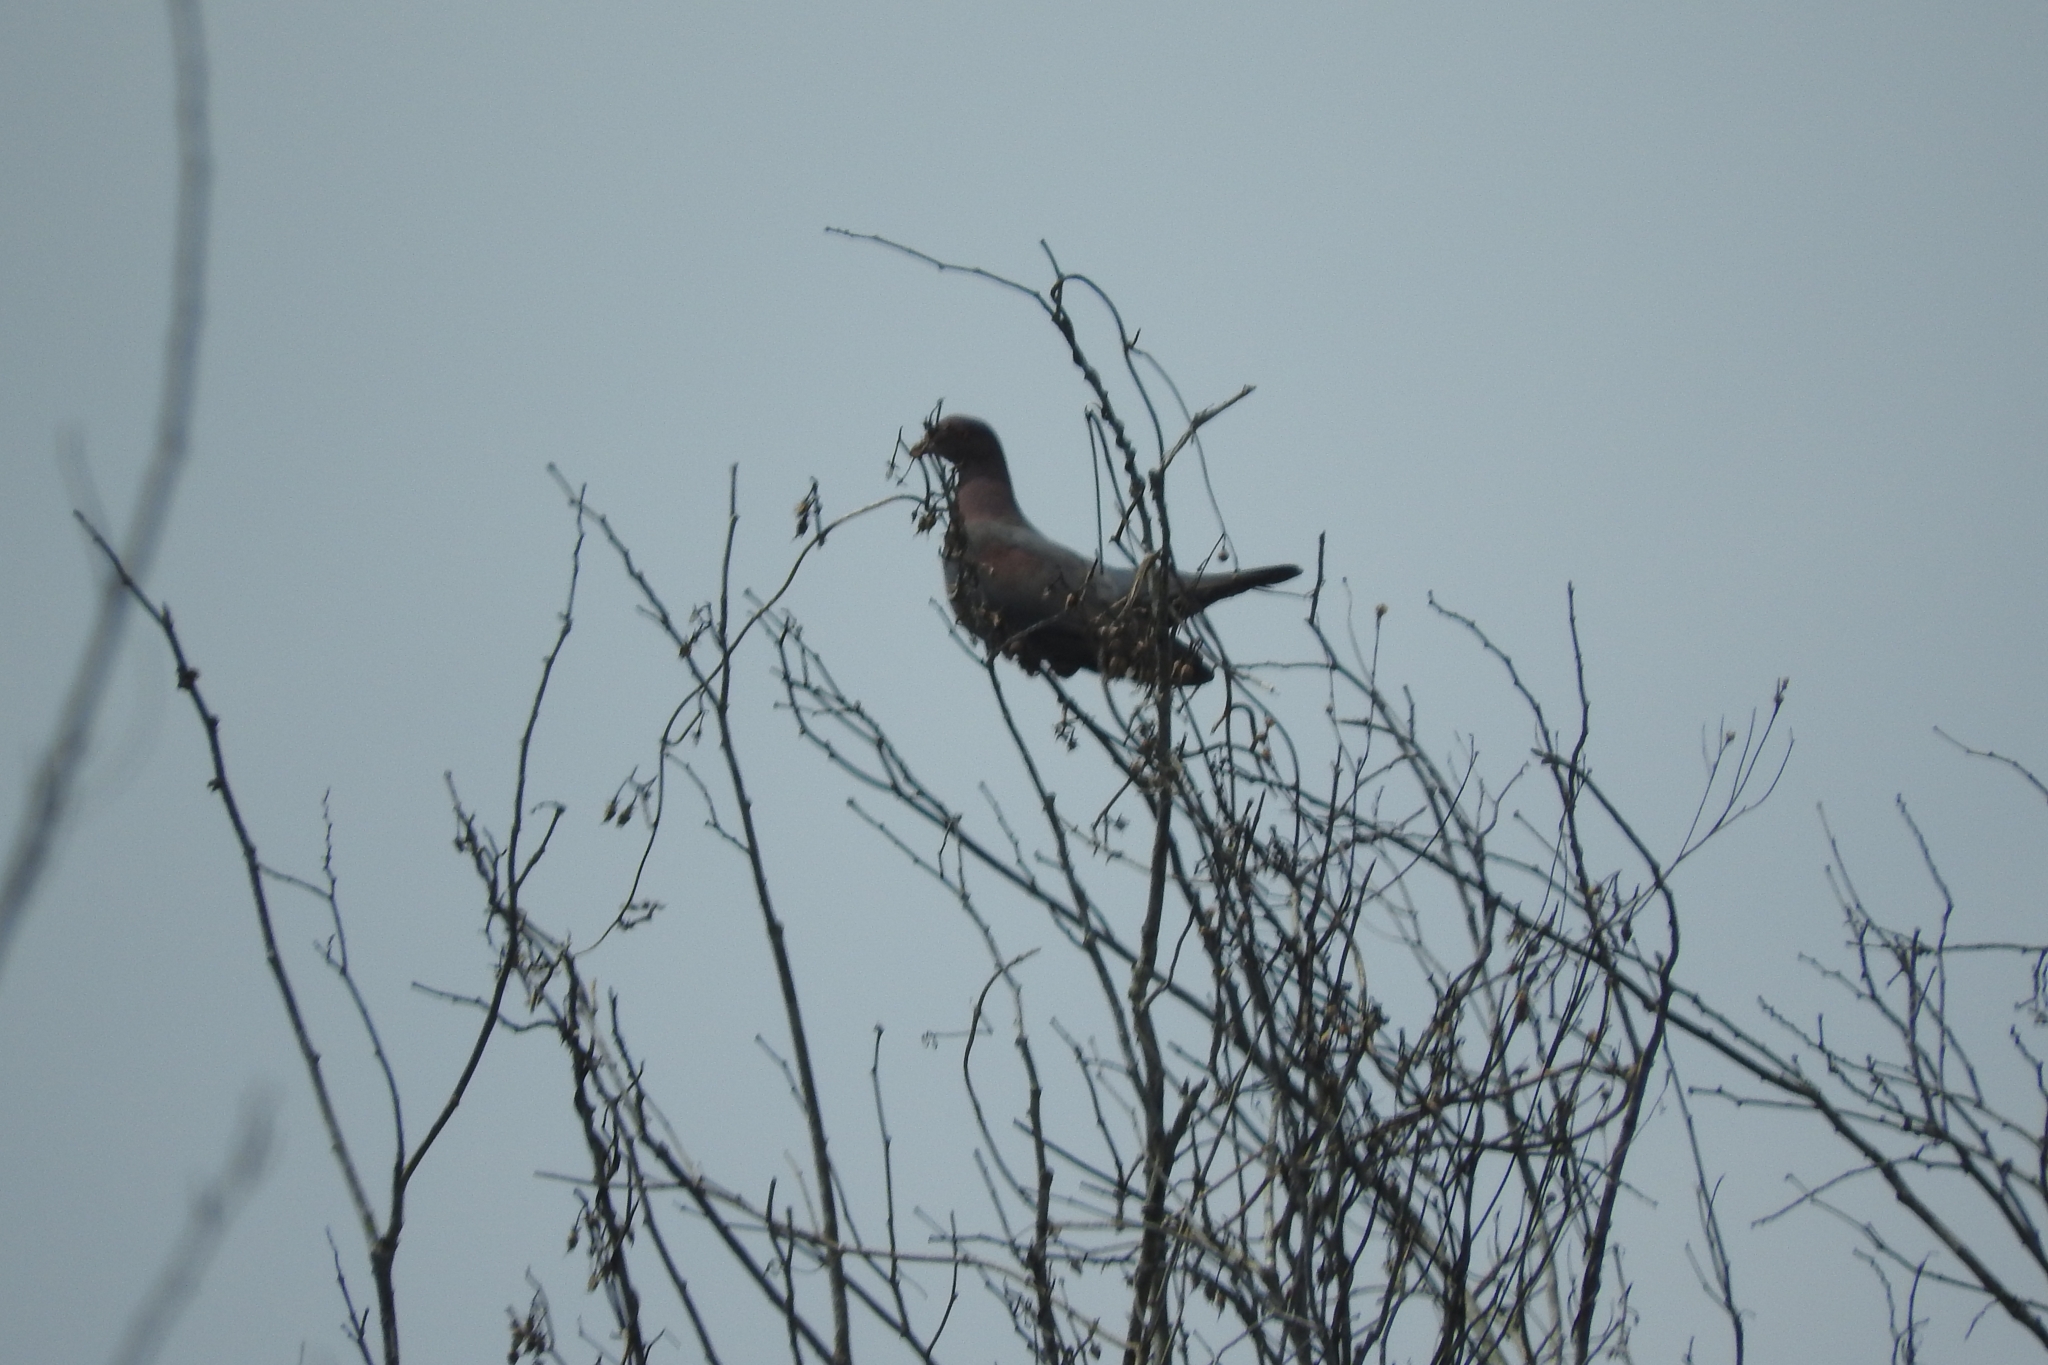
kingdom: Animalia
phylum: Chordata
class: Aves
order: Columbiformes
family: Columbidae
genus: Patagioenas
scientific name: Patagioenas flavirostris
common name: Red-billed pigeon
